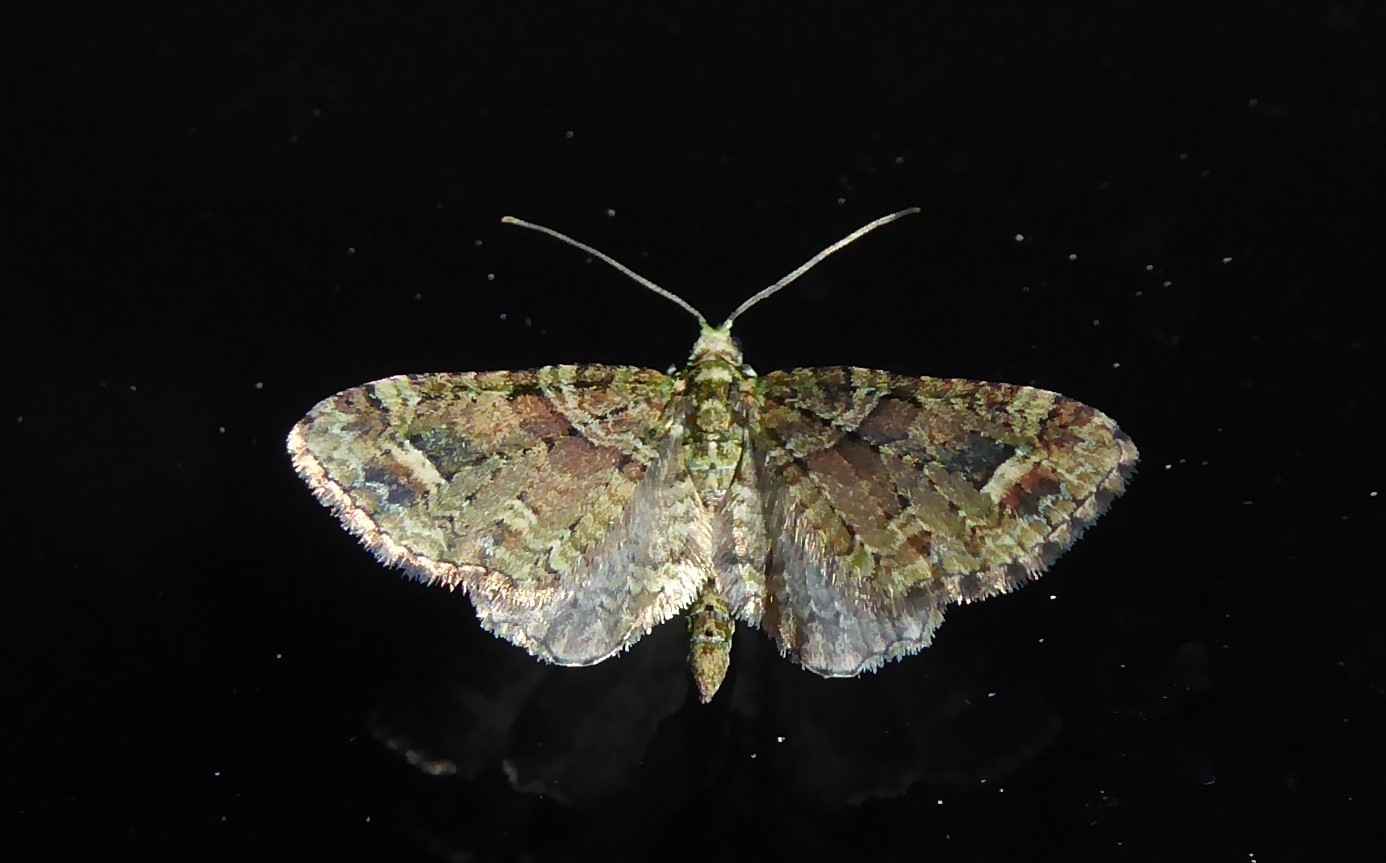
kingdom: Animalia
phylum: Arthropoda
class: Insecta
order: Lepidoptera
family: Geometridae
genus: Idaea
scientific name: Idaea mutanda
